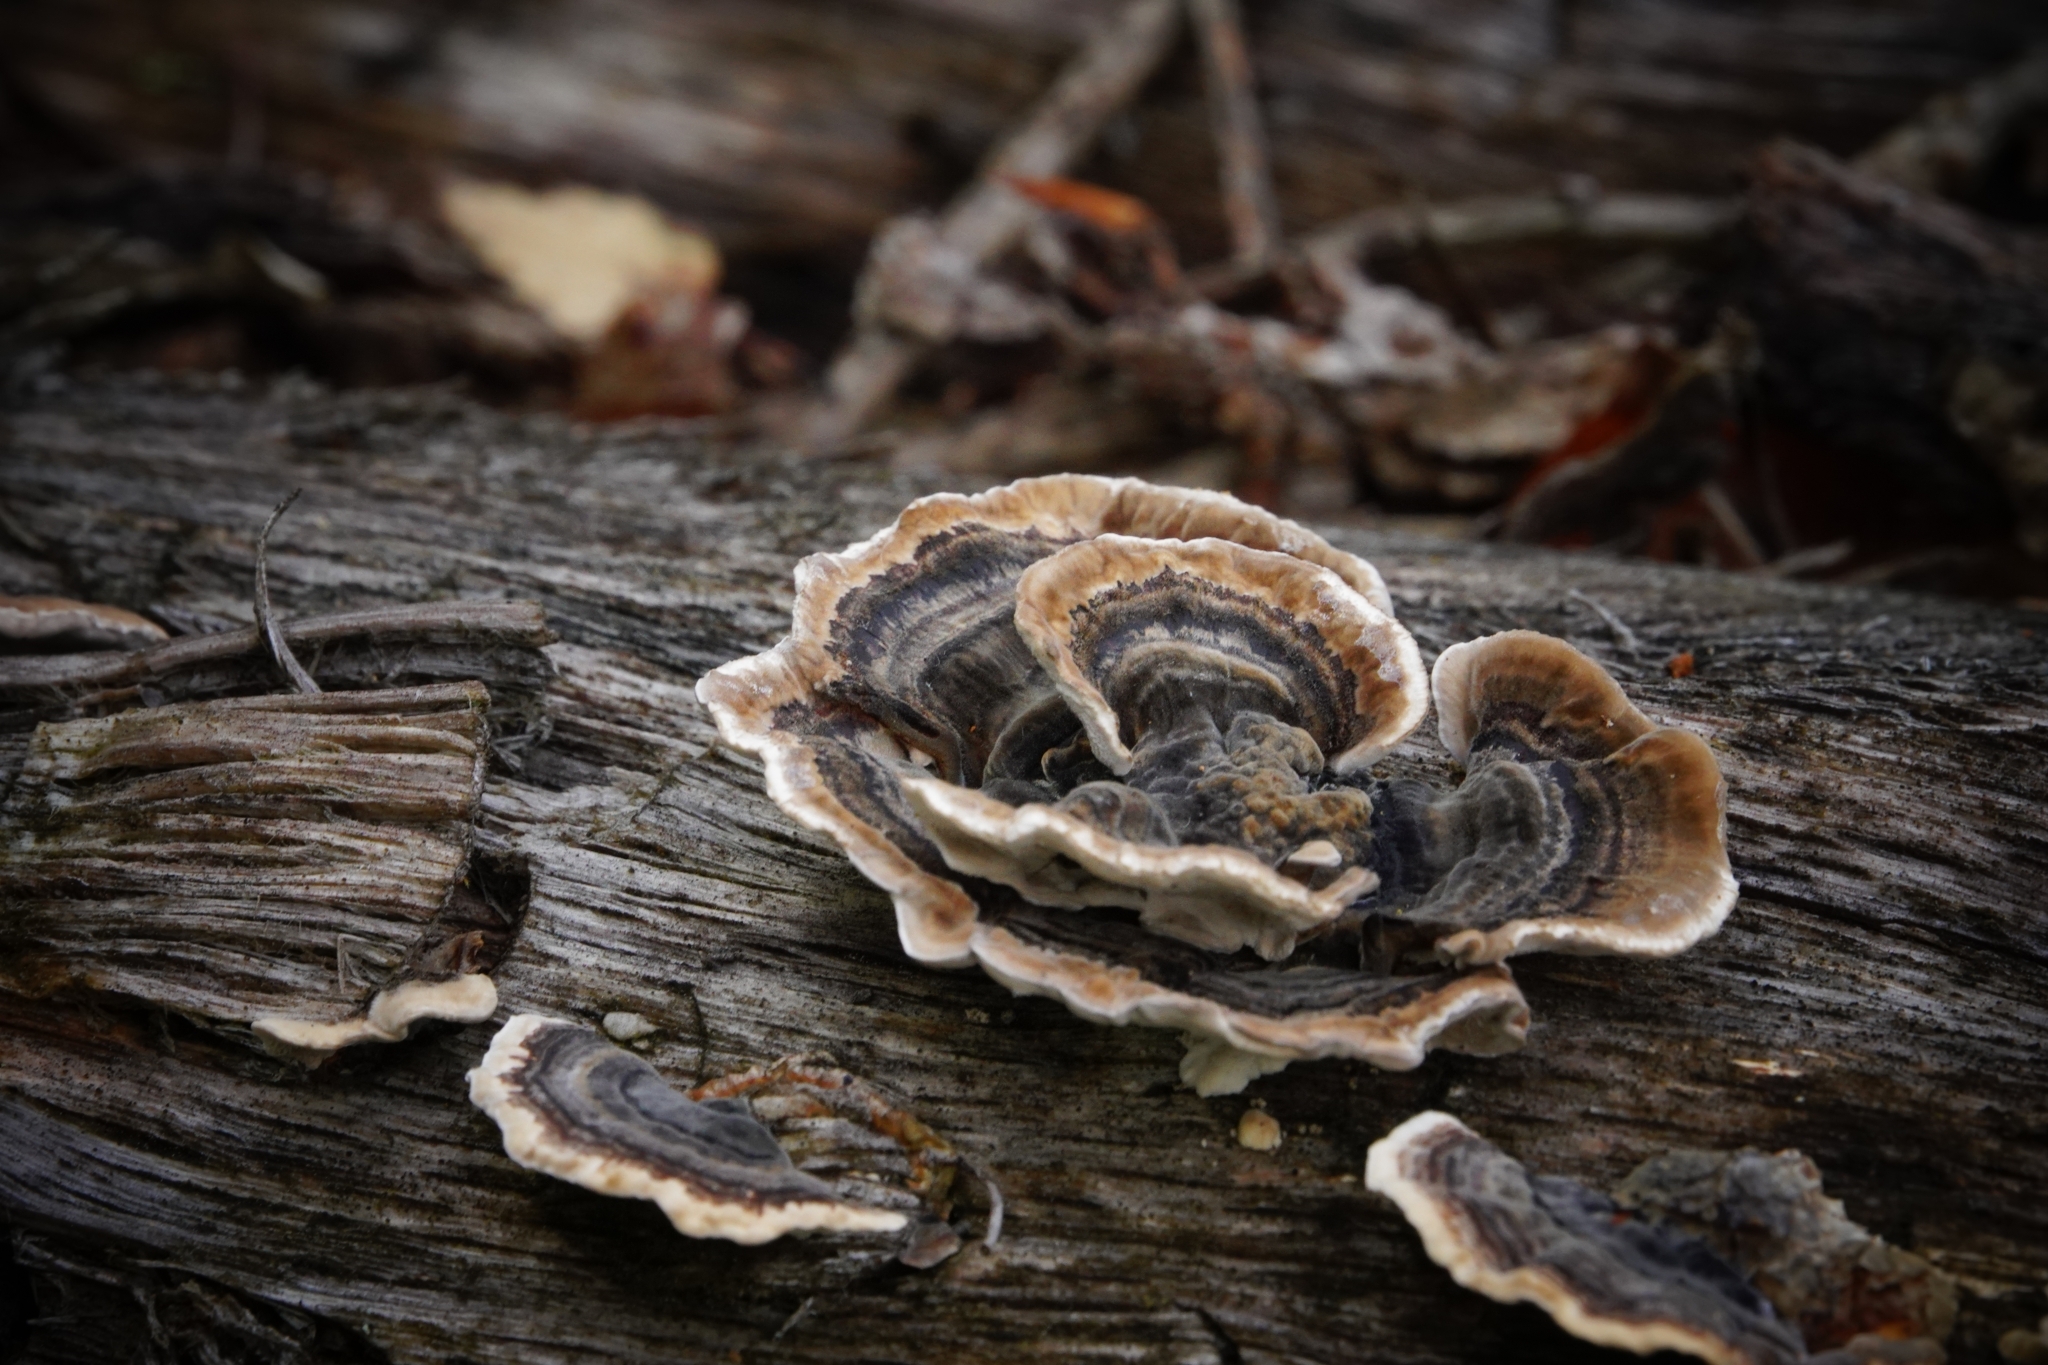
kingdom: Fungi
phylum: Basidiomycota
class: Agaricomycetes
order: Polyporales
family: Polyporaceae
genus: Trametes
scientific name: Trametes versicolor
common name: Turkeytail
